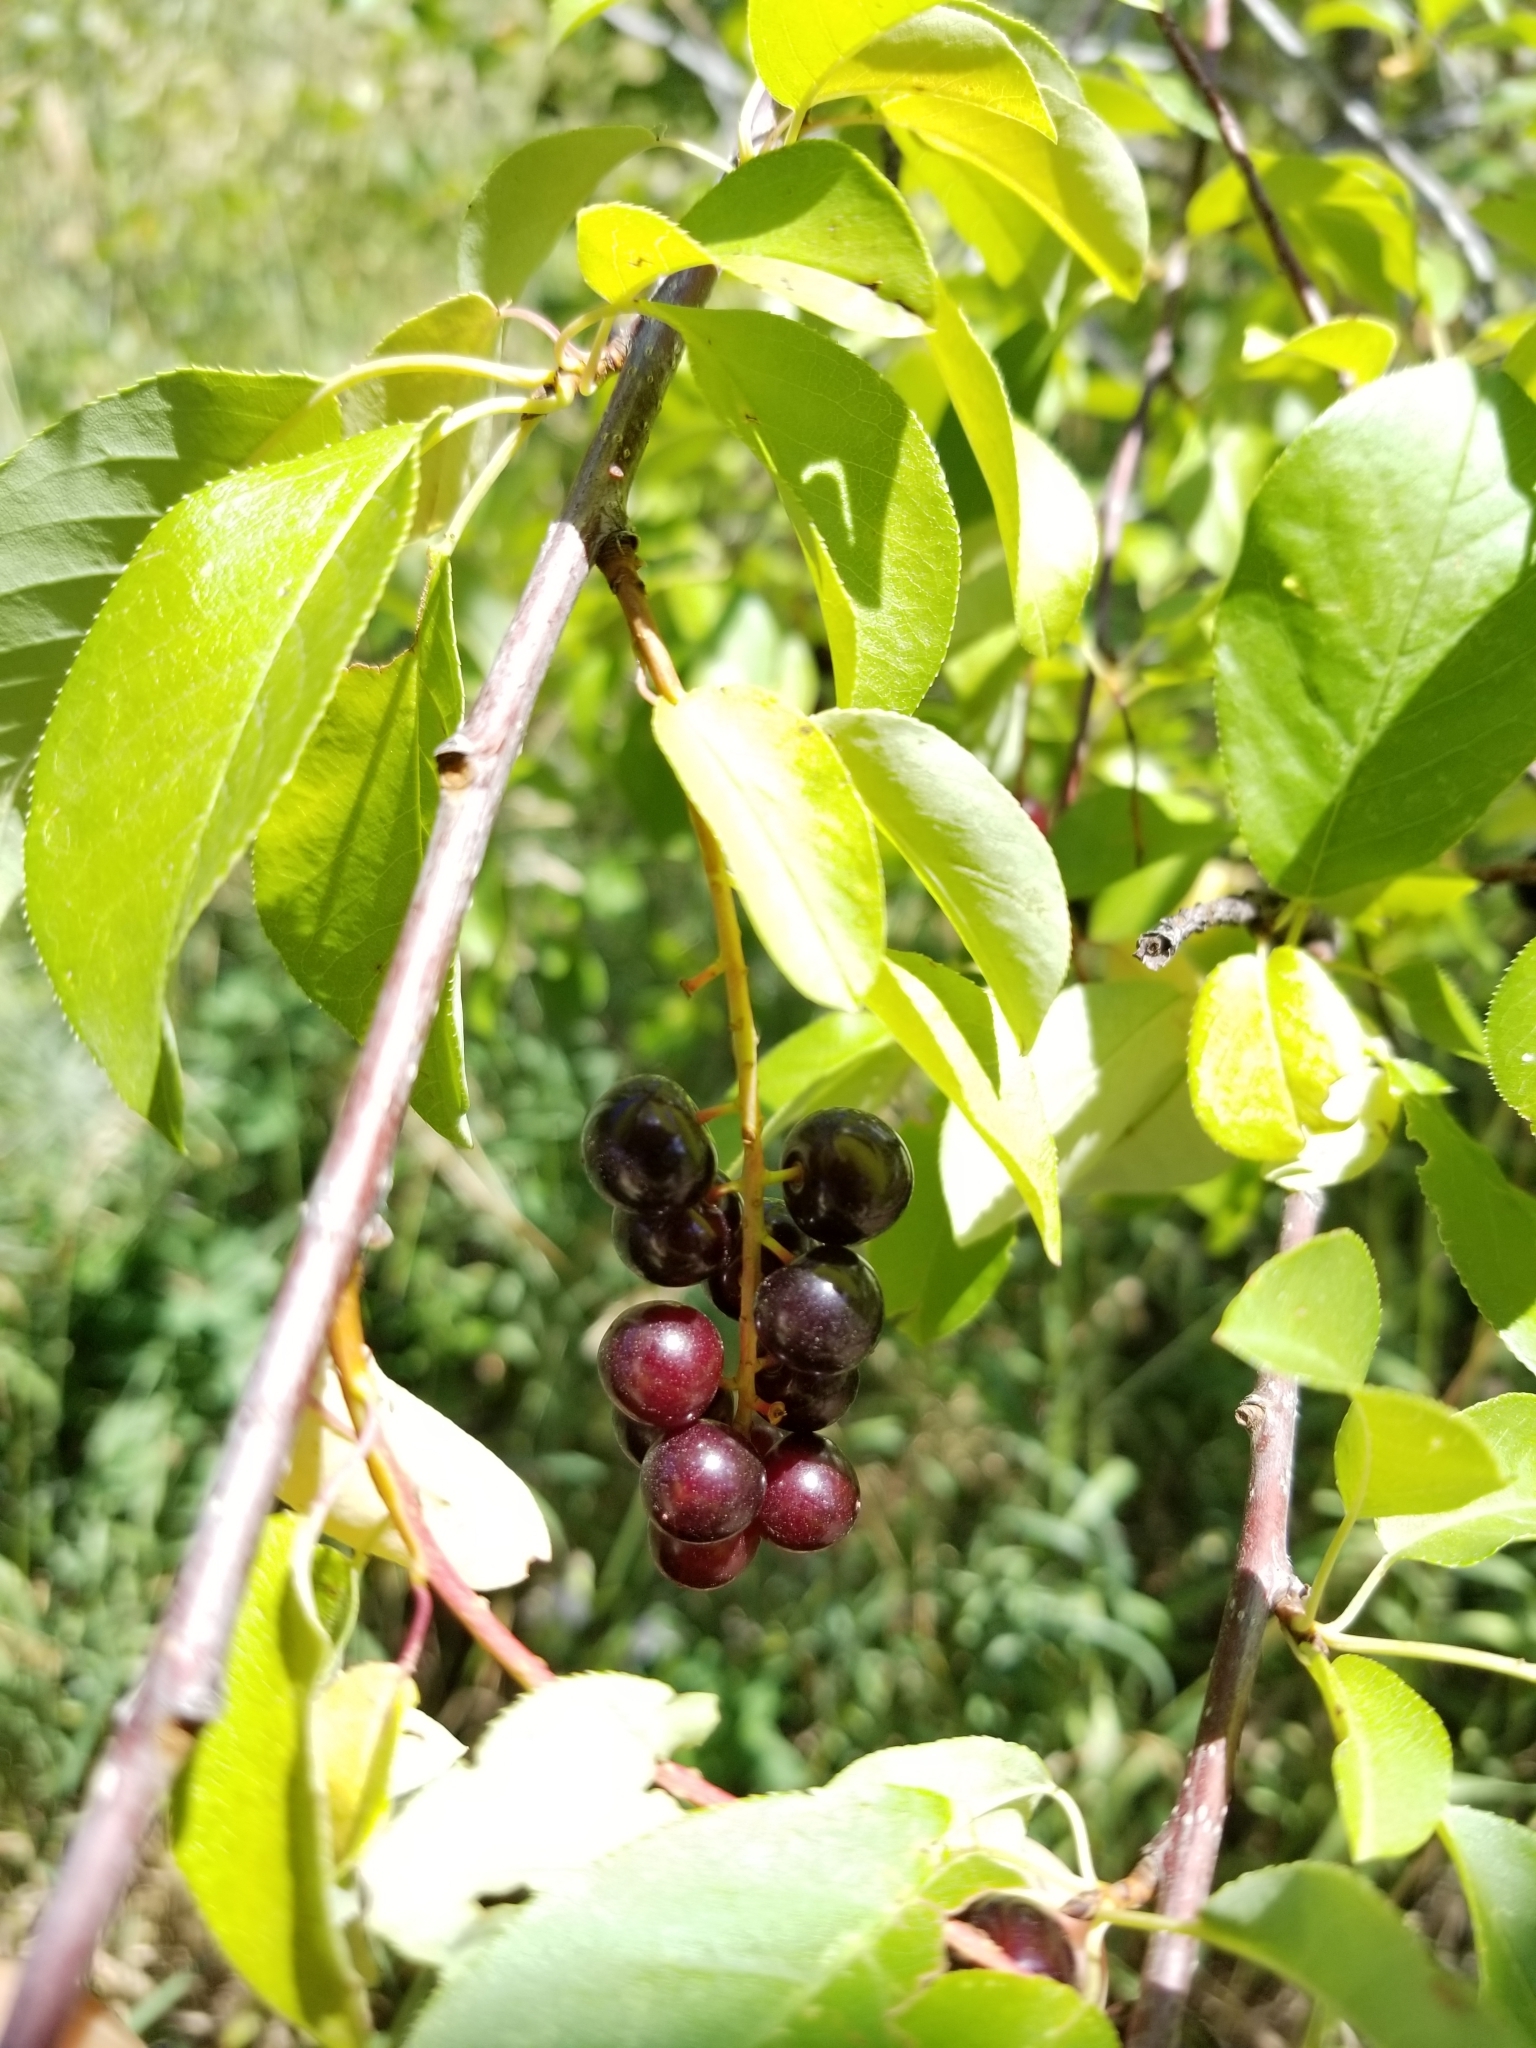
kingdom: Plantae
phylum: Tracheophyta
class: Magnoliopsida
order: Rosales
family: Rosaceae
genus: Prunus
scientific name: Prunus virginiana
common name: Chokecherry
